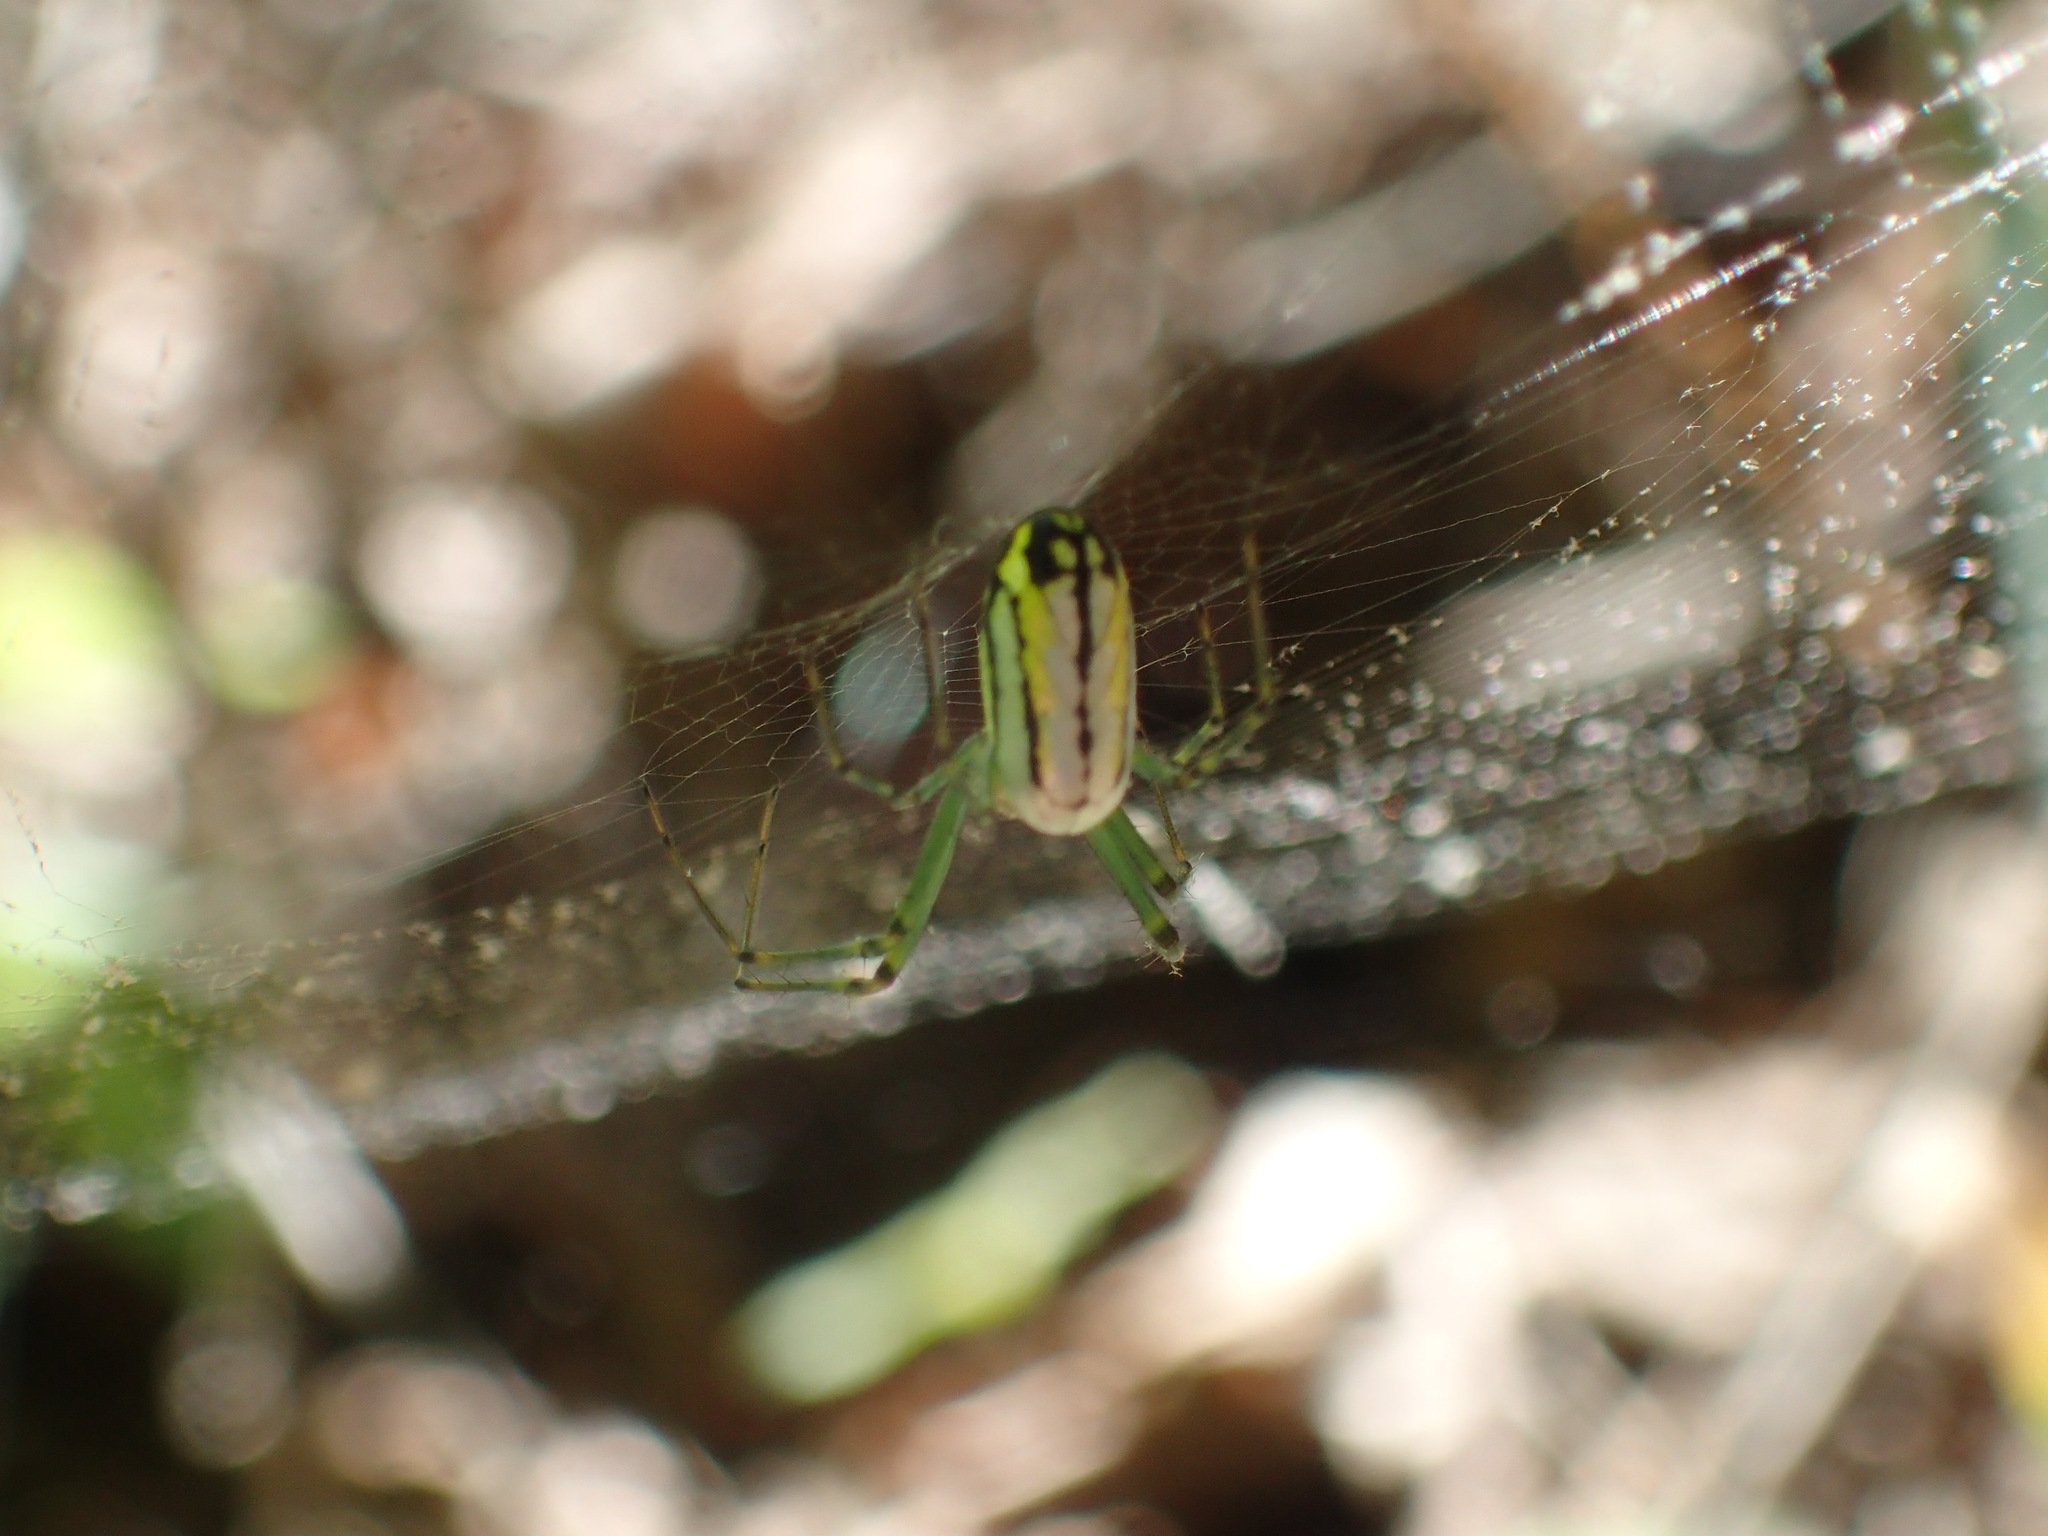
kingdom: Animalia
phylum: Arthropoda
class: Arachnida
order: Araneae
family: Tetragnathidae
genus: Leucauge
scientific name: Leucauge venusta
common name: Longjawed orb weavers
